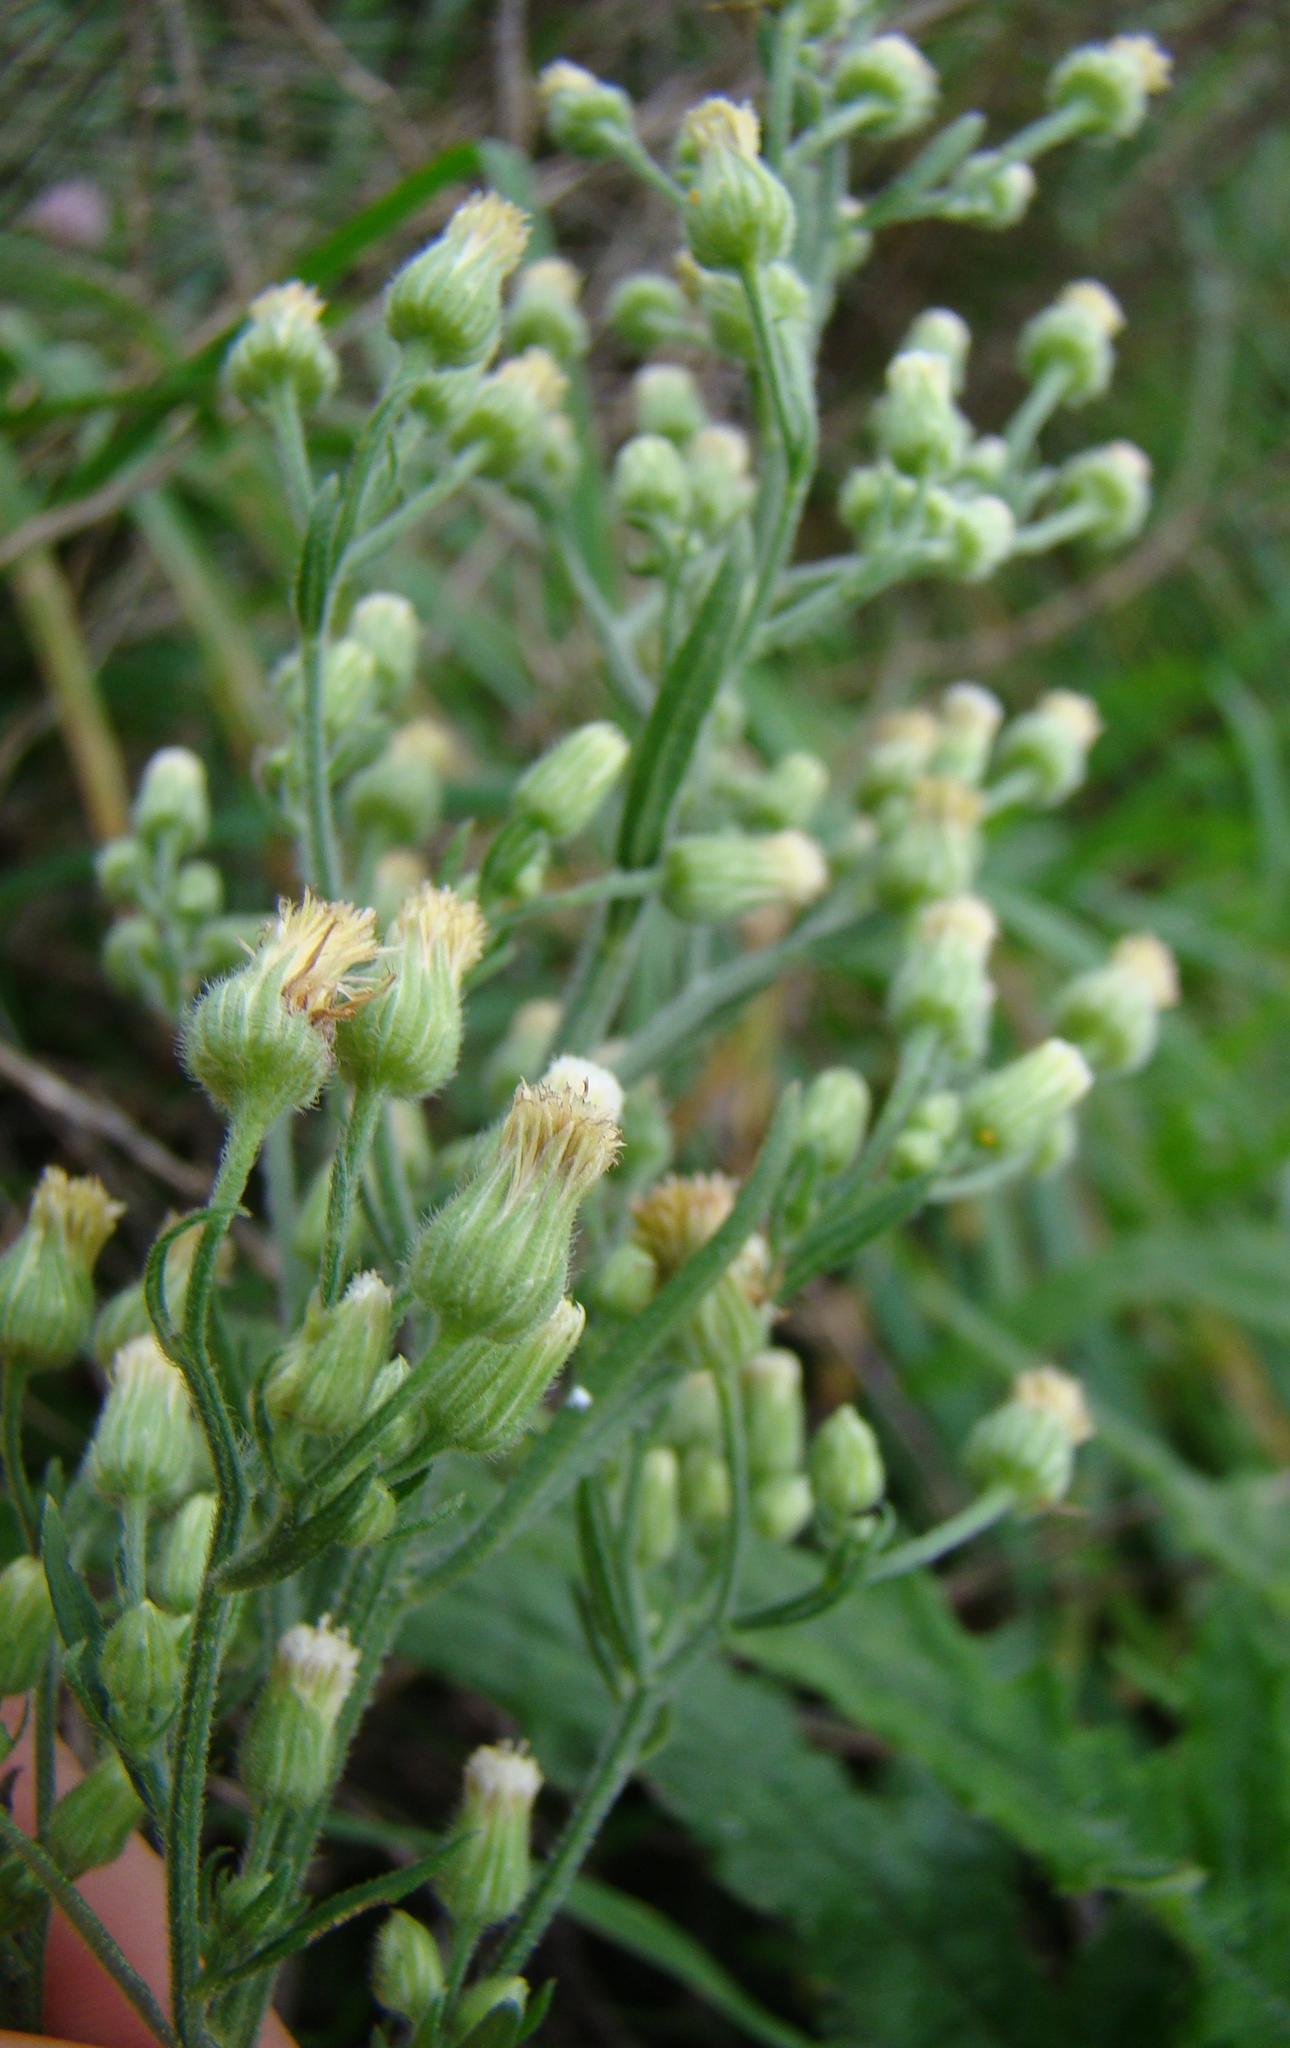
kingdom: Plantae
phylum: Tracheophyta
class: Magnoliopsida
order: Asterales
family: Asteraceae
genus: Erigeron
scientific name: Erigeron sumatrensis
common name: Daisy
